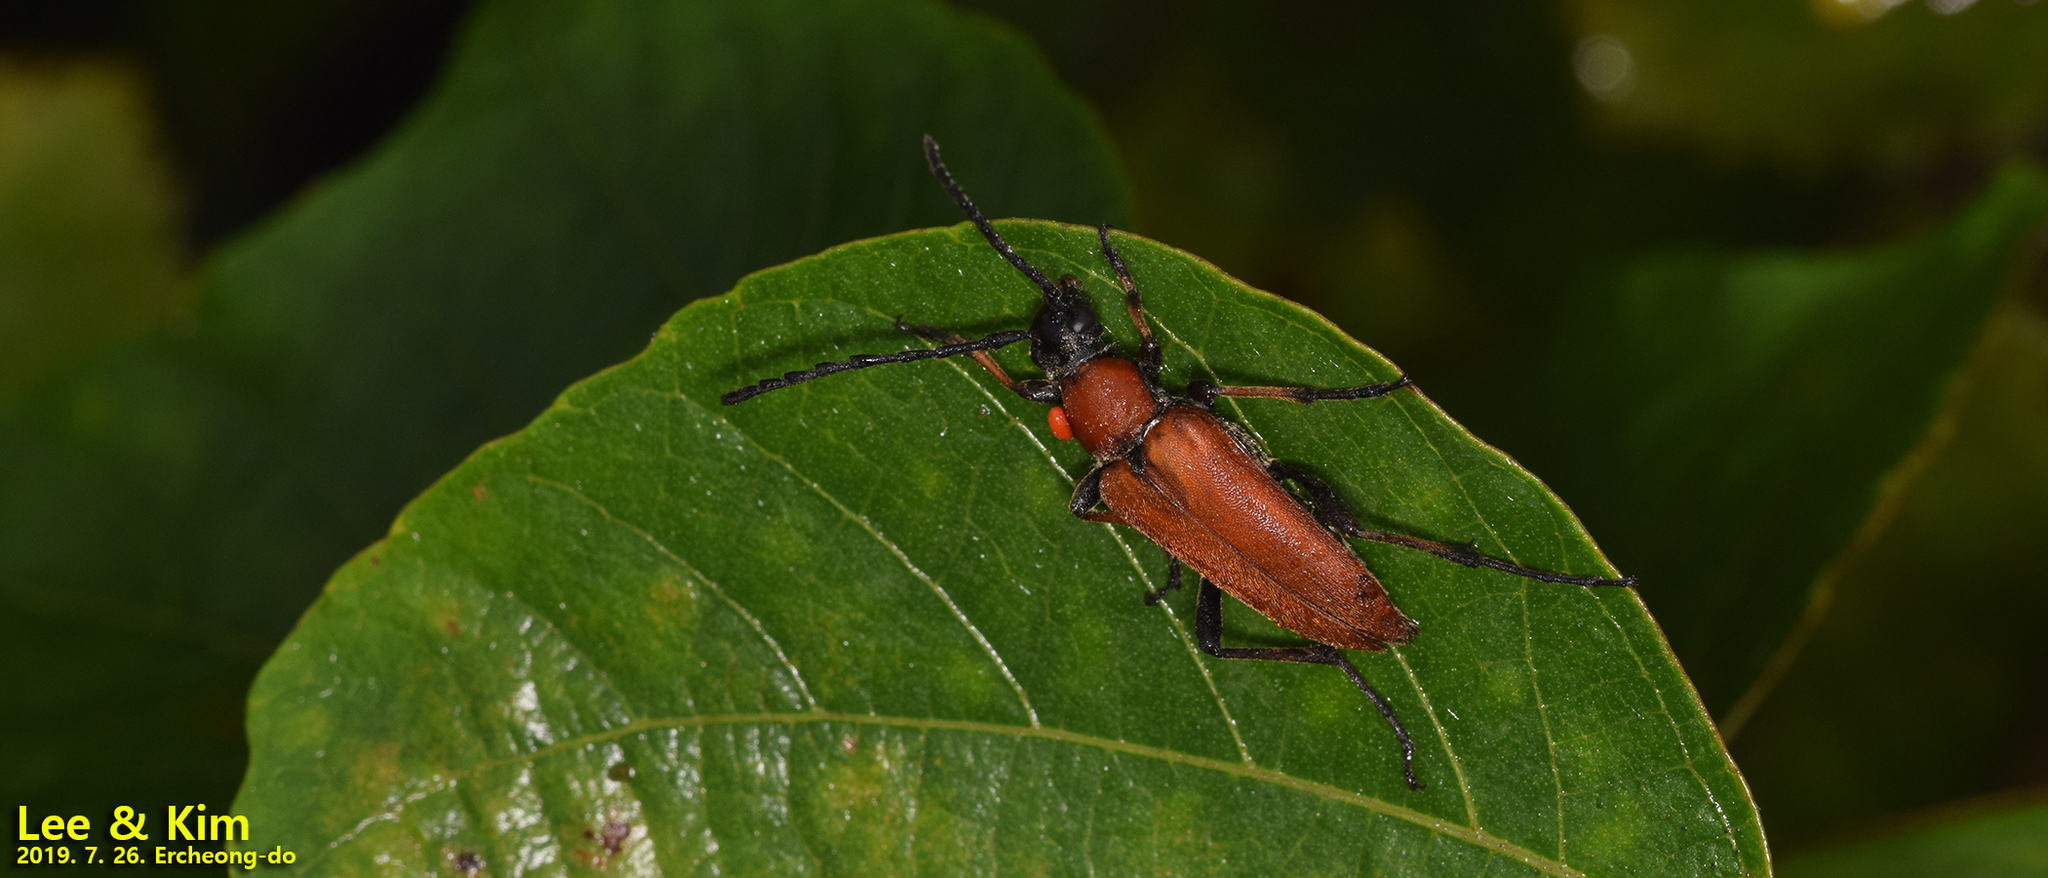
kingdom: Animalia
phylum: Arthropoda
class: Insecta
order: Coleoptera
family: Cerambycidae
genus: Stictoleptura
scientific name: Stictoleptura dichroa
